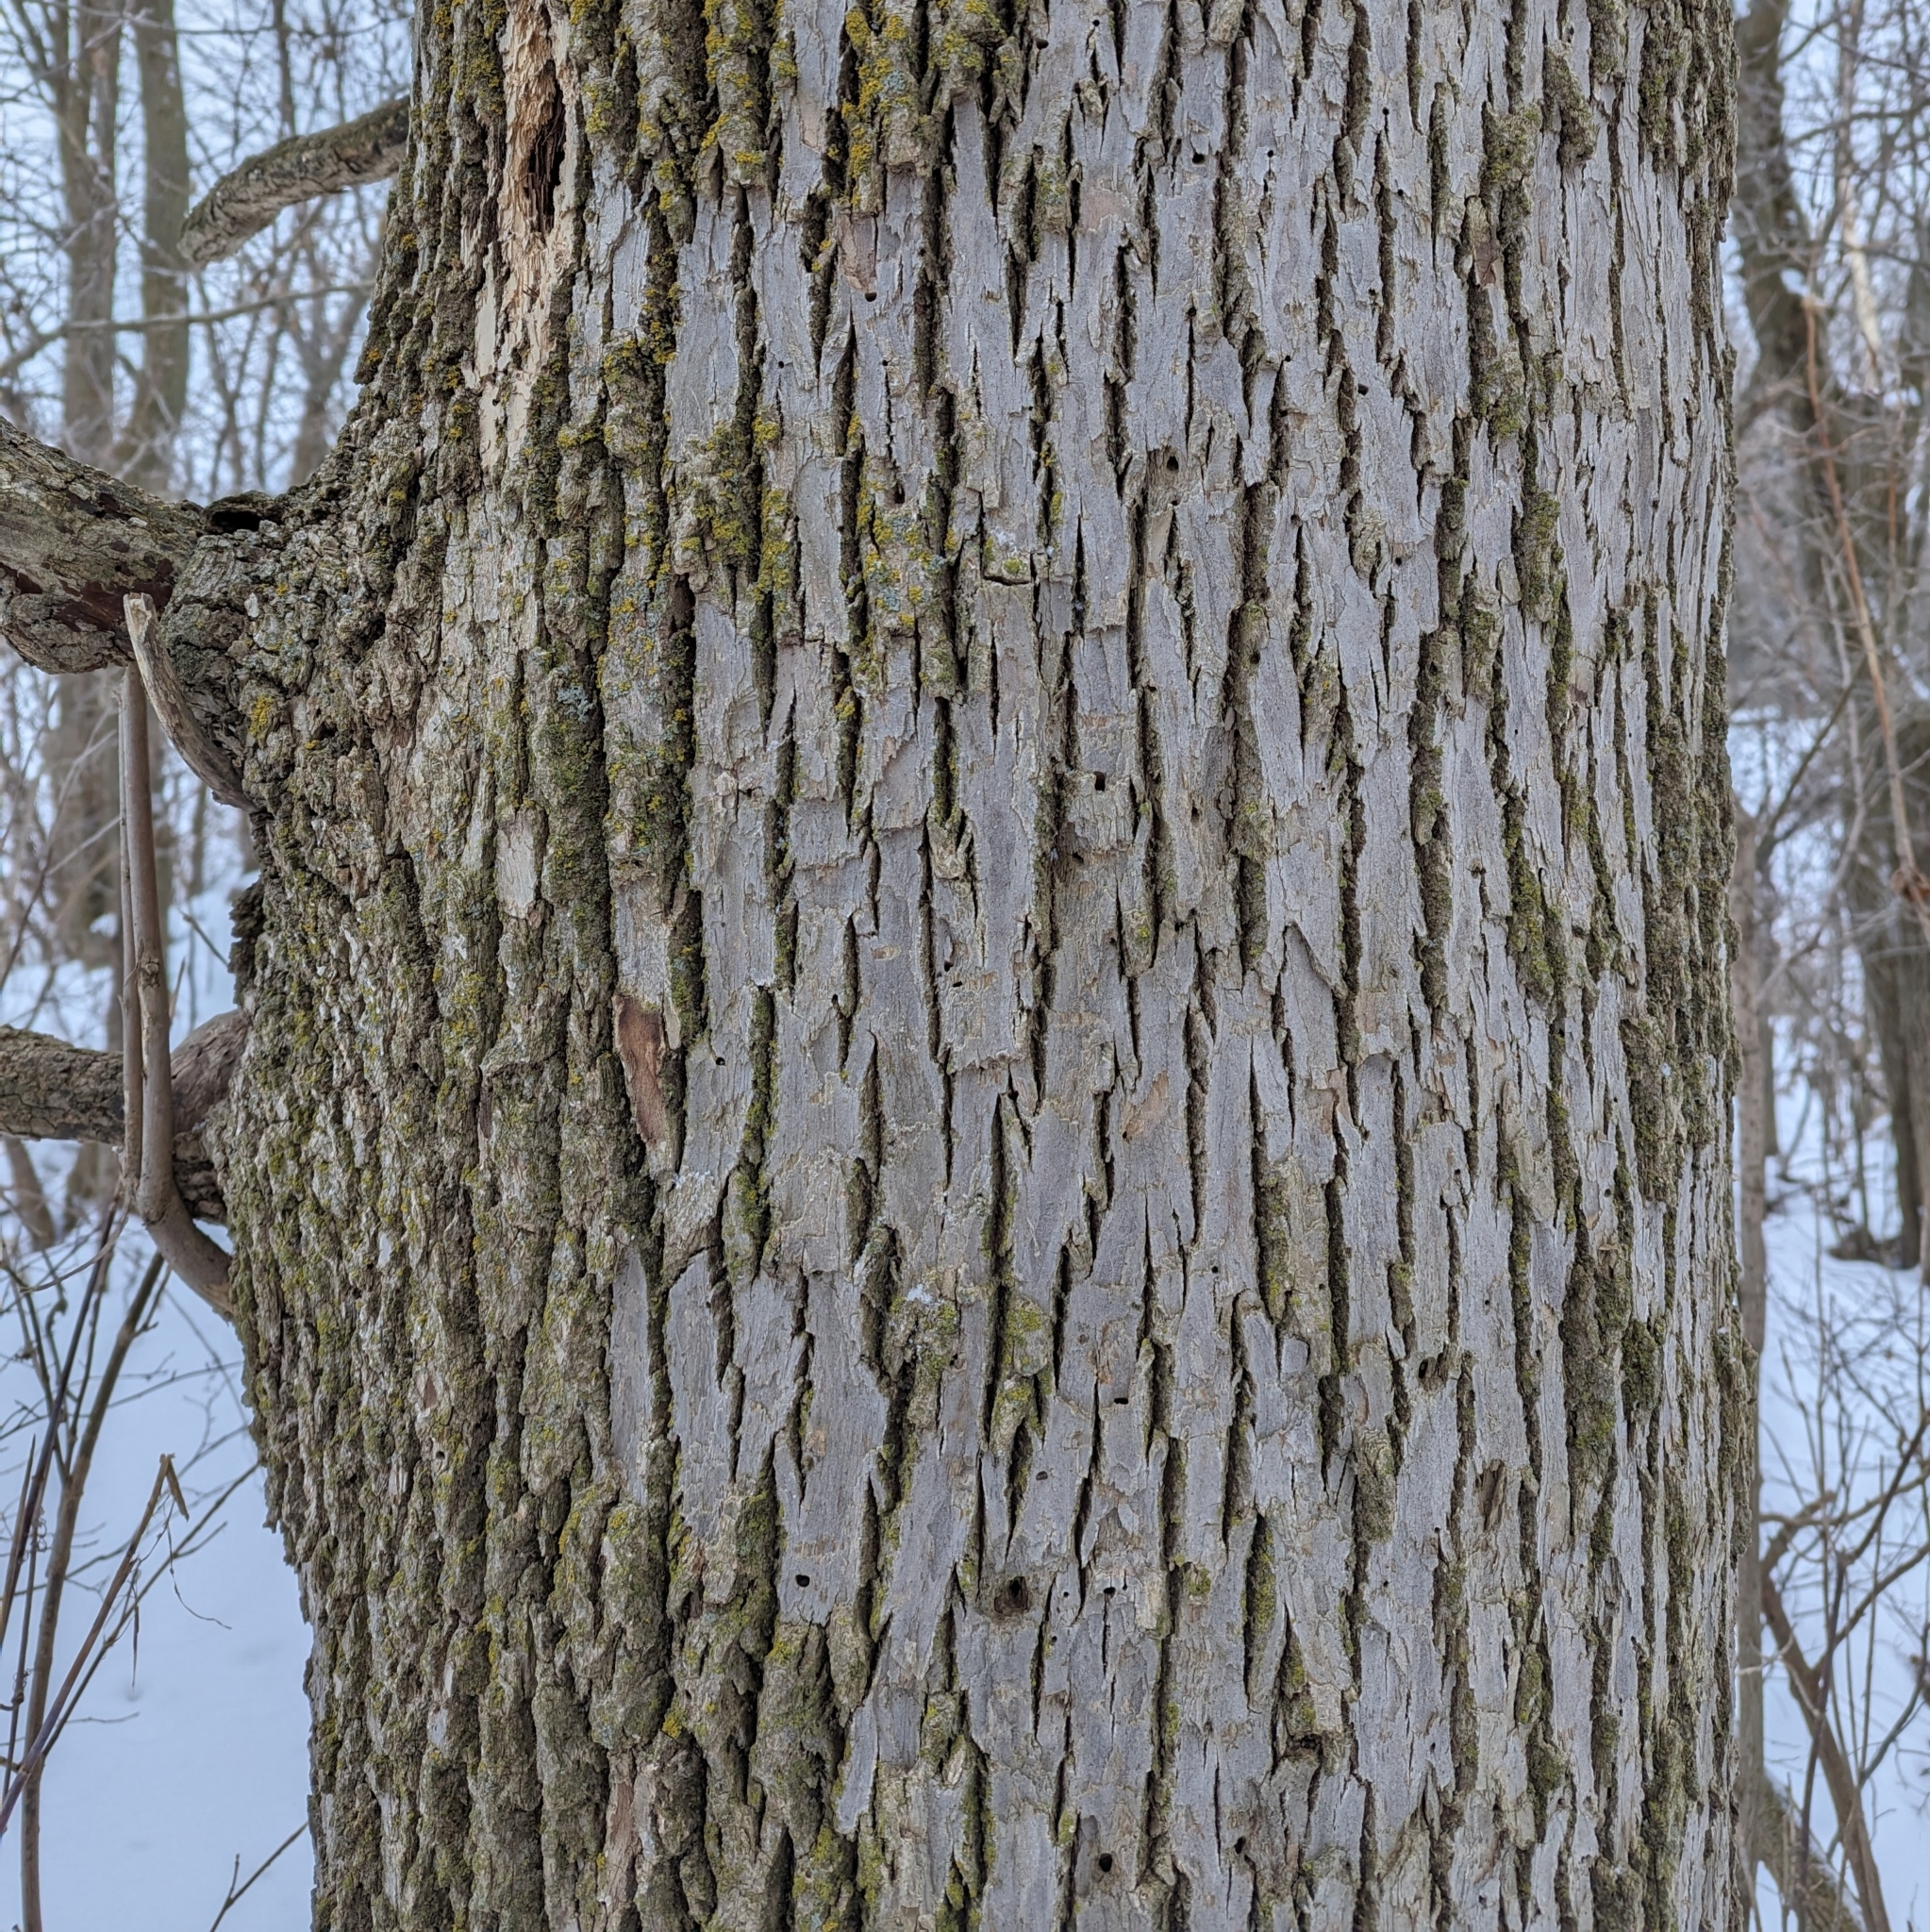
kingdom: Plantae
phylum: Tracheophyta
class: Magnoliopsida
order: Lamiales
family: Oleaceae
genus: Fraxinus
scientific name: Fraxinus
